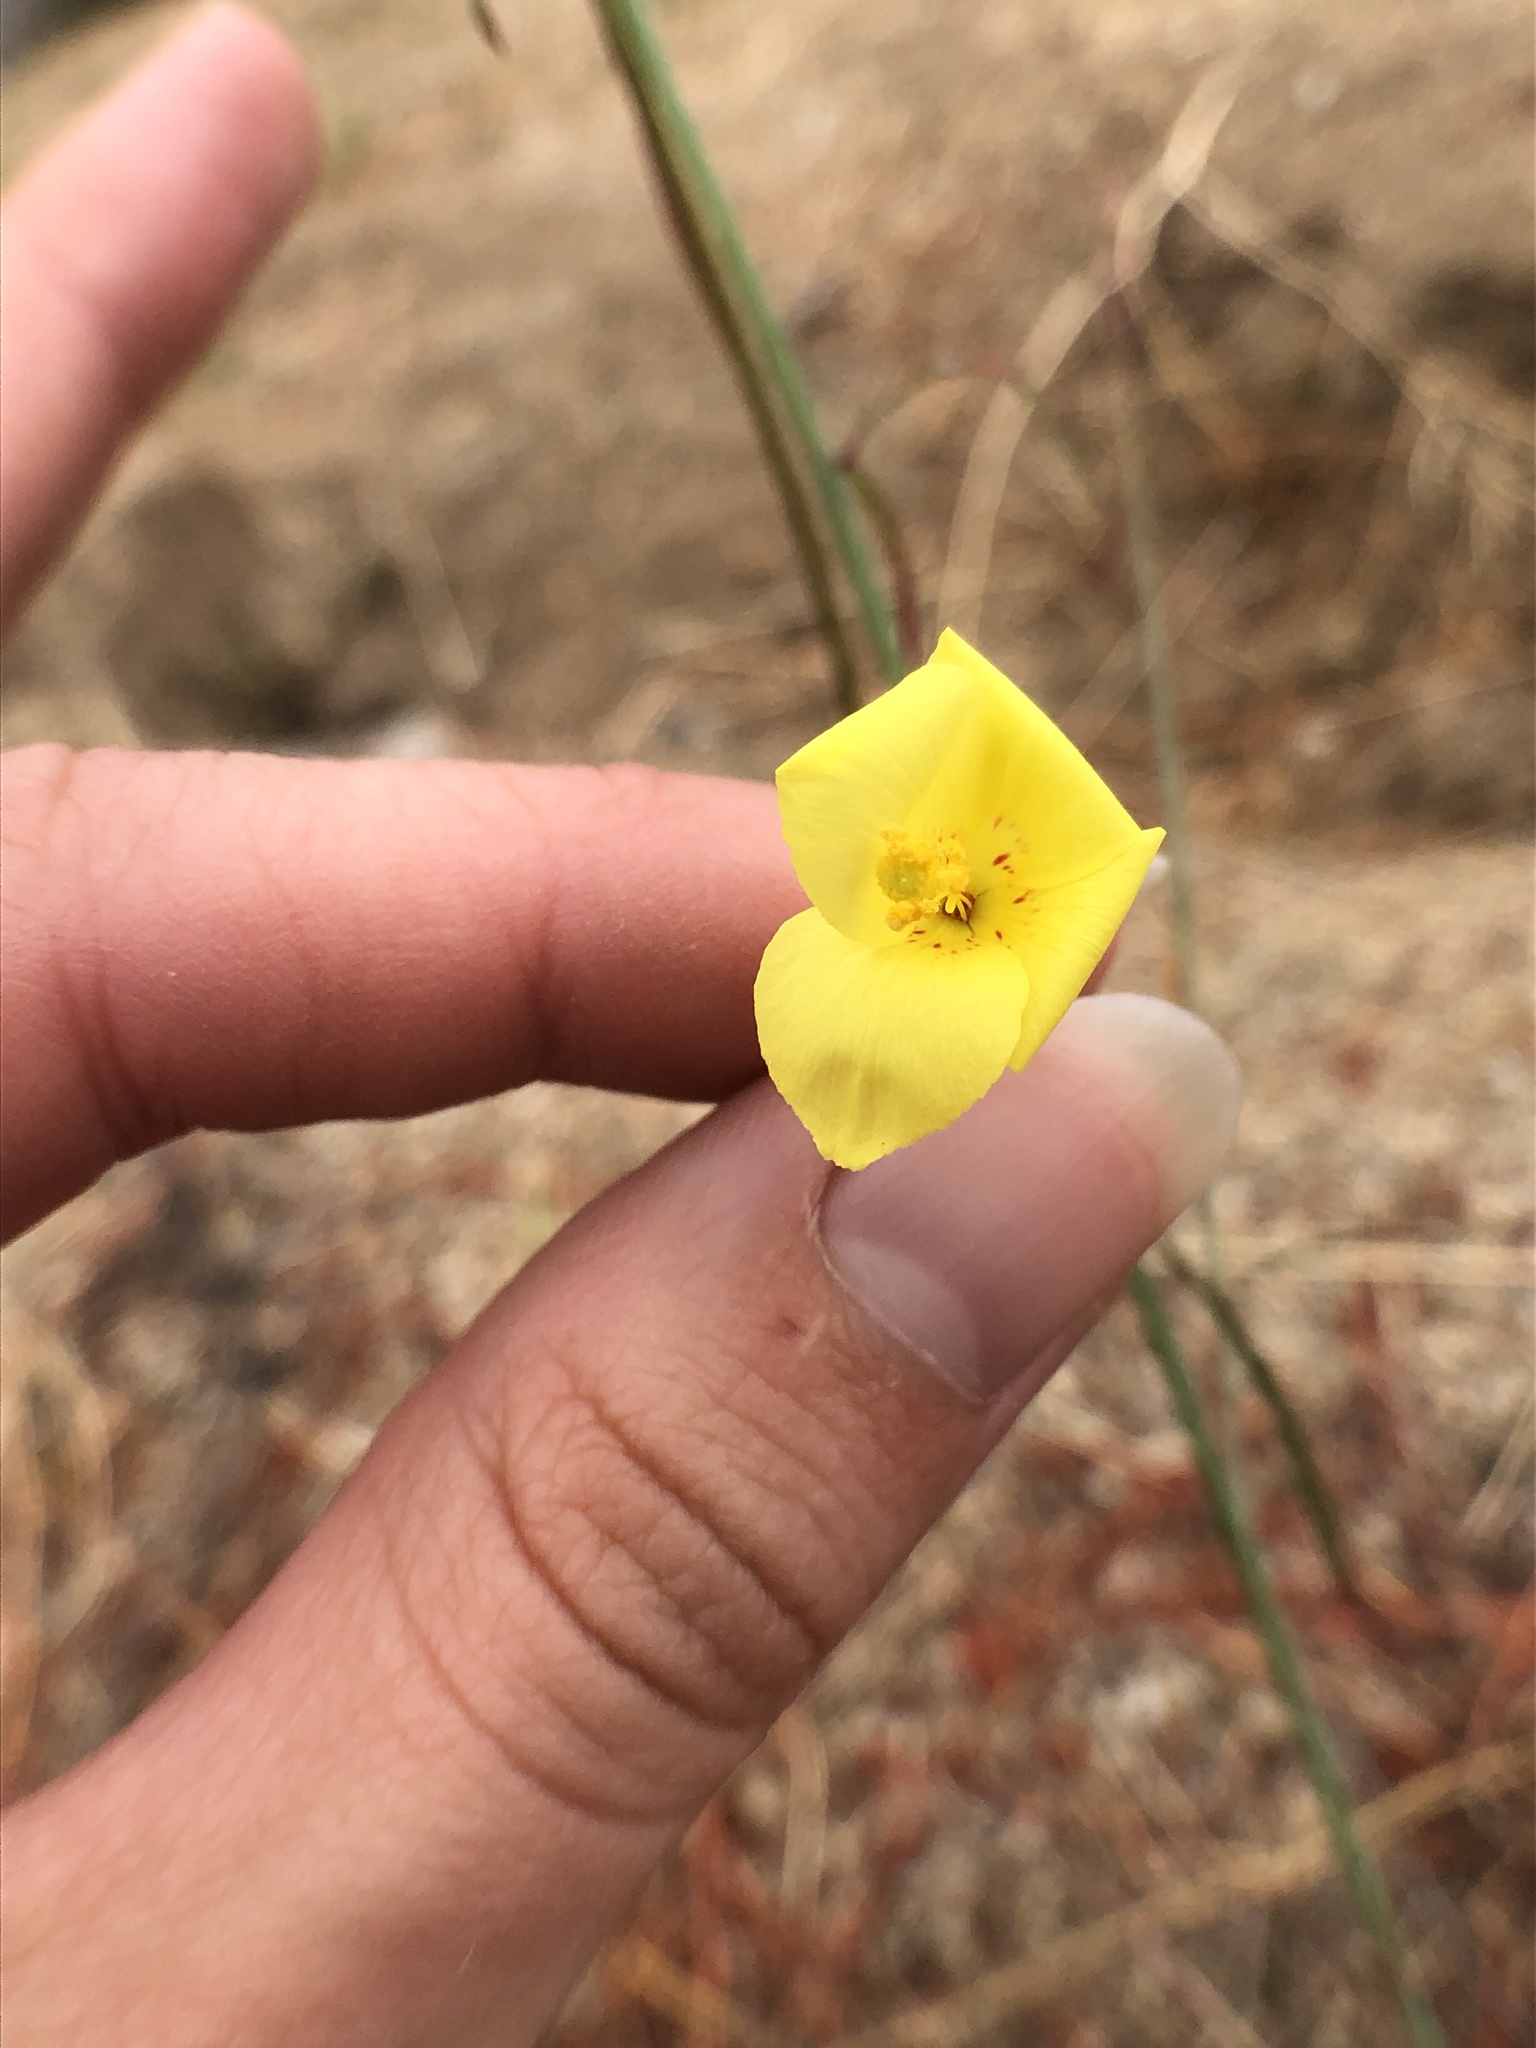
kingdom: Plantae
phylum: Tracheophyta
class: Magnoliopsida
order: Myrtales
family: Onagraceae
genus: Eulobus
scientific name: Eulobus californicus
